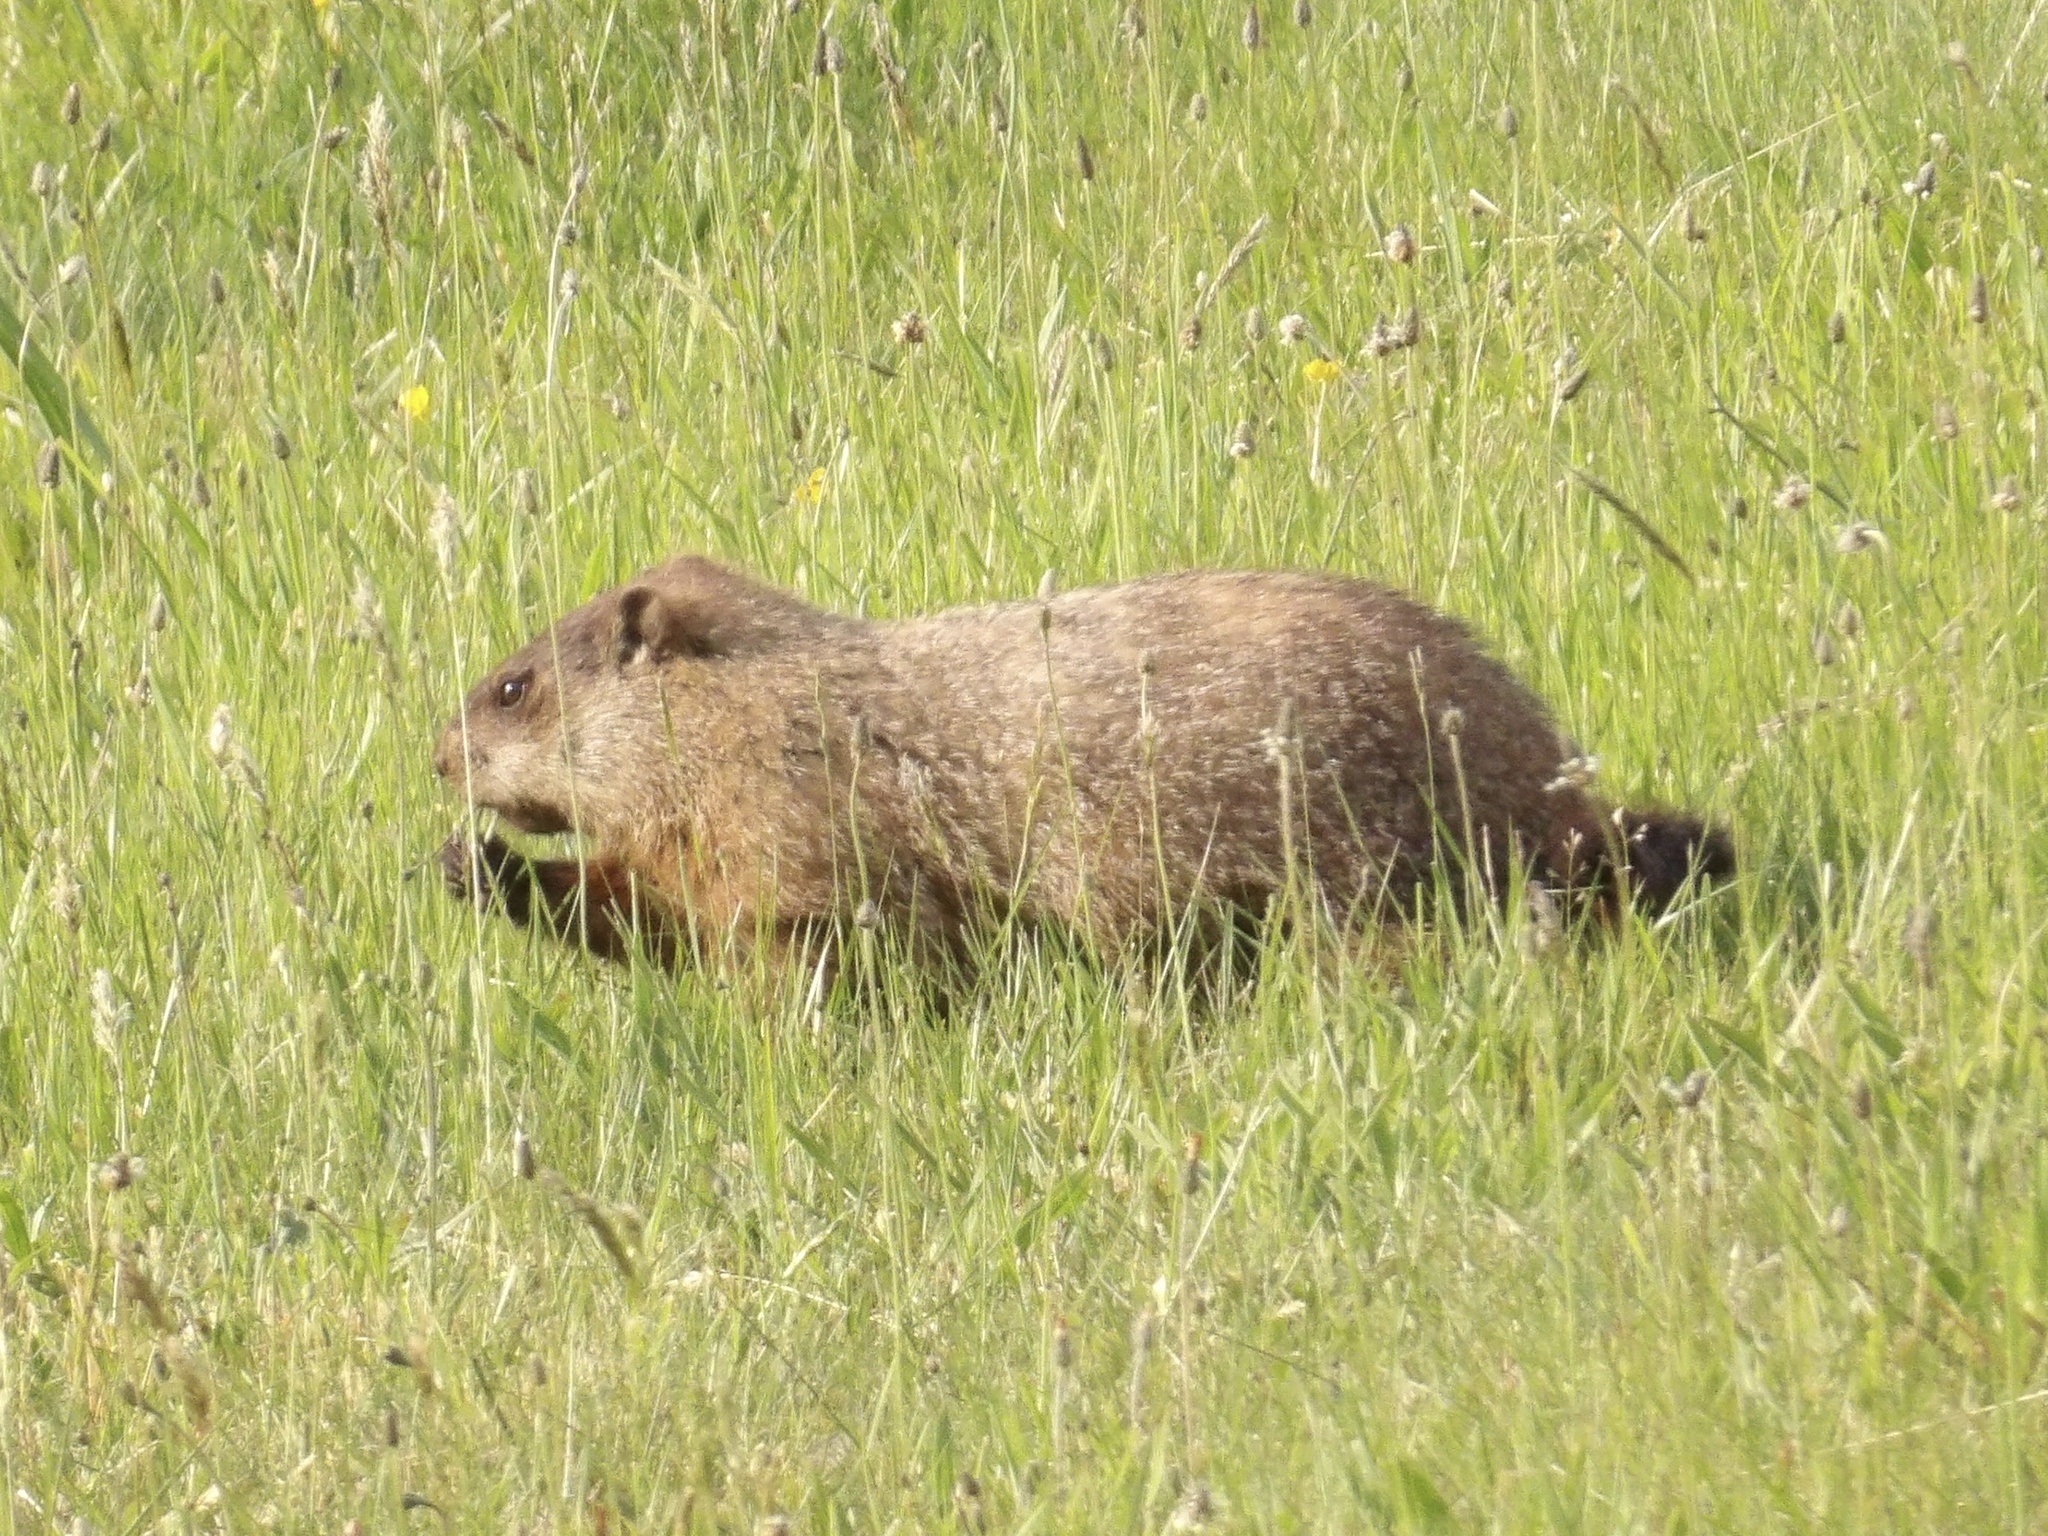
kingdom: Animalia
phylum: Chordata
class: Mammalia
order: Rodentia
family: Sciuridae
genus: Marmota
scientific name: Marmota monax
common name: Groundhog
